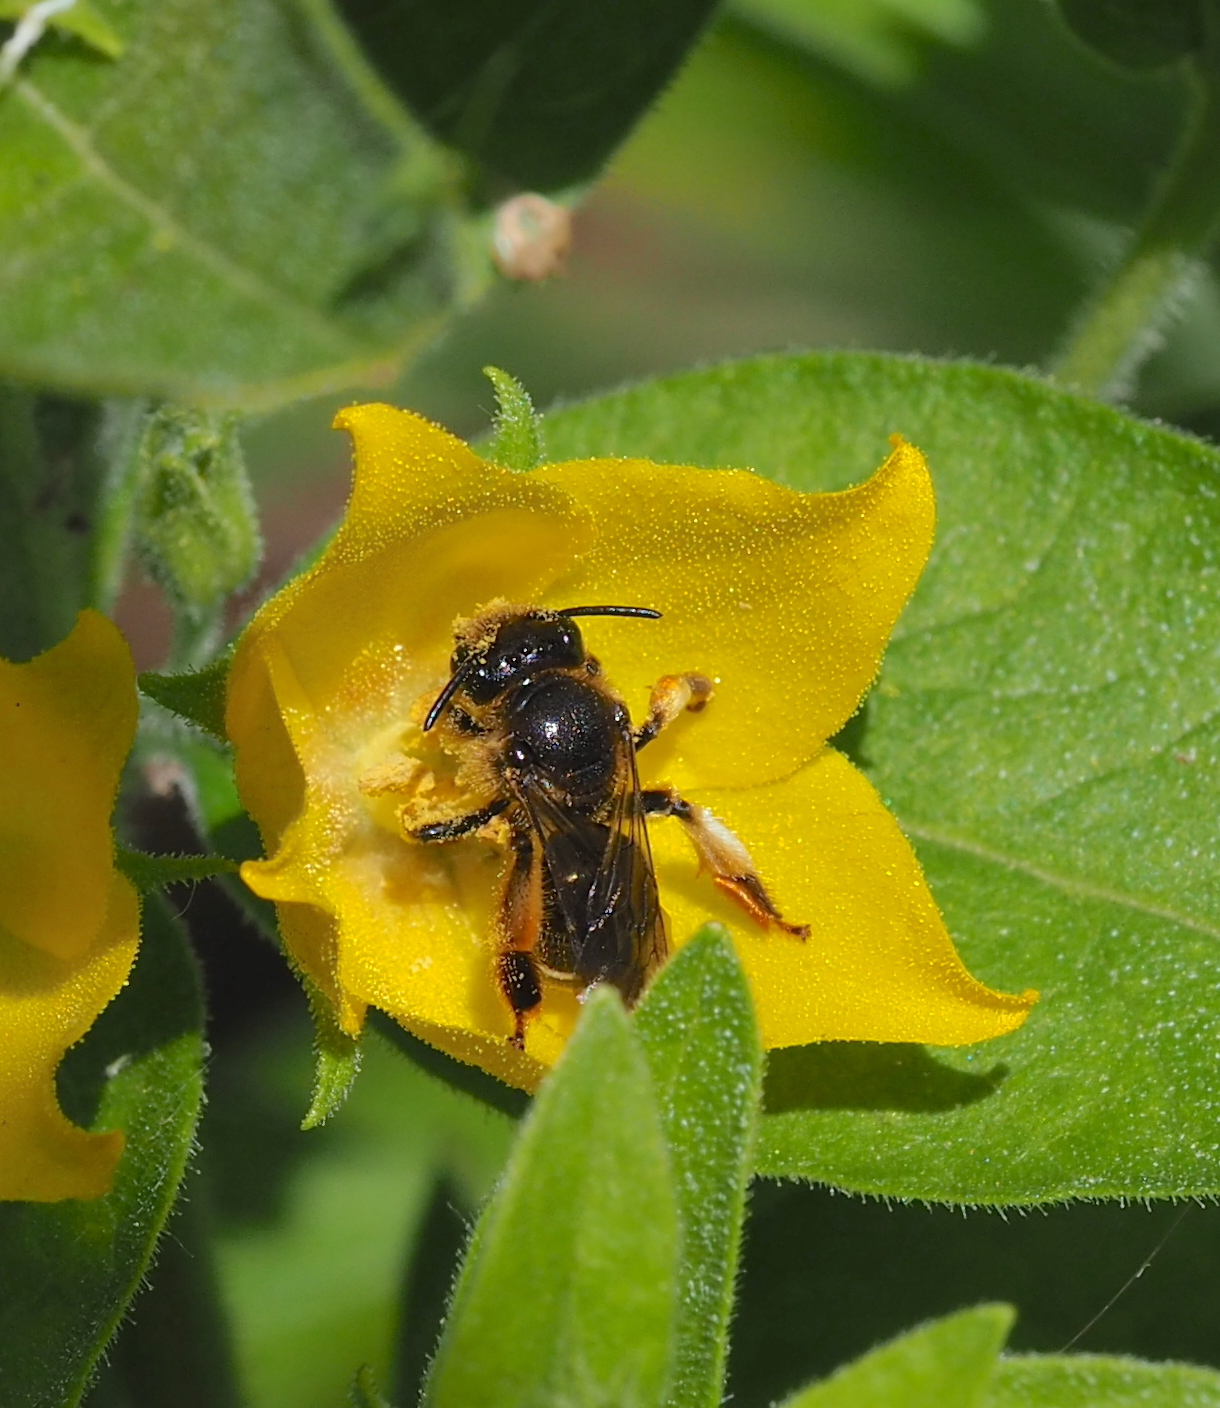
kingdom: Animalia
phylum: Arthropoda
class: Insecta
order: Hymenoptera
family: Melittidae
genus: Macropis
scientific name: Macropis fulvipes
